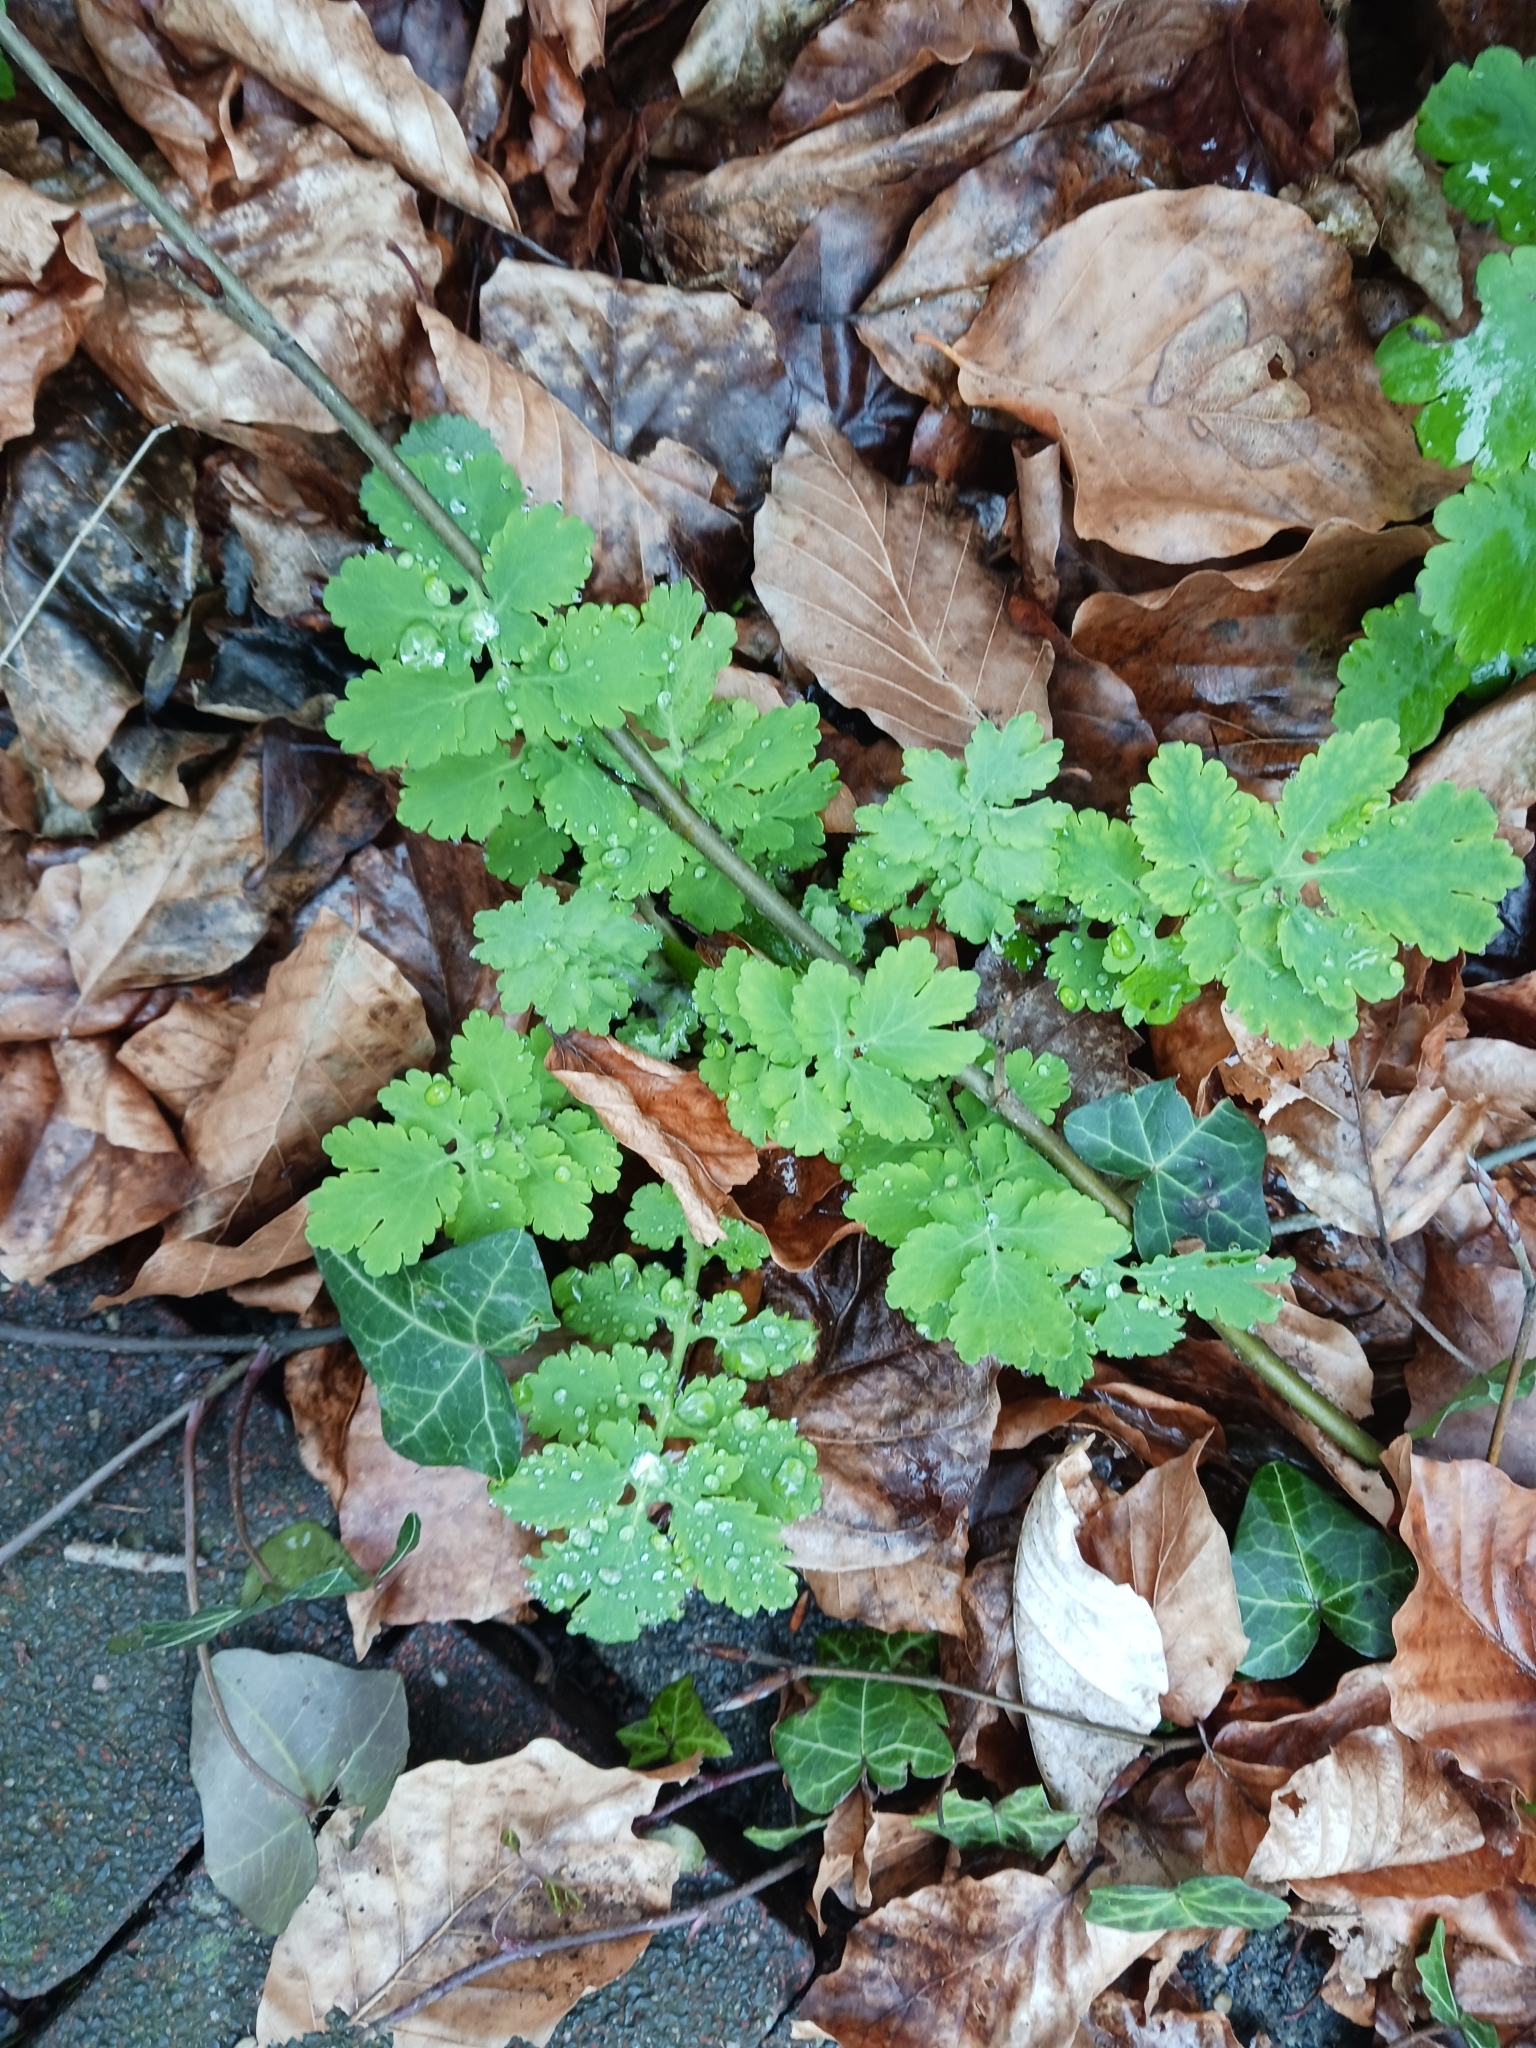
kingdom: Plantae
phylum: Tracheophyta
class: Magnoliopsida
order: Ranunculales
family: Papaveraceae
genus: Chelidonium
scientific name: Chelidonium majus
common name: Greater celandine
